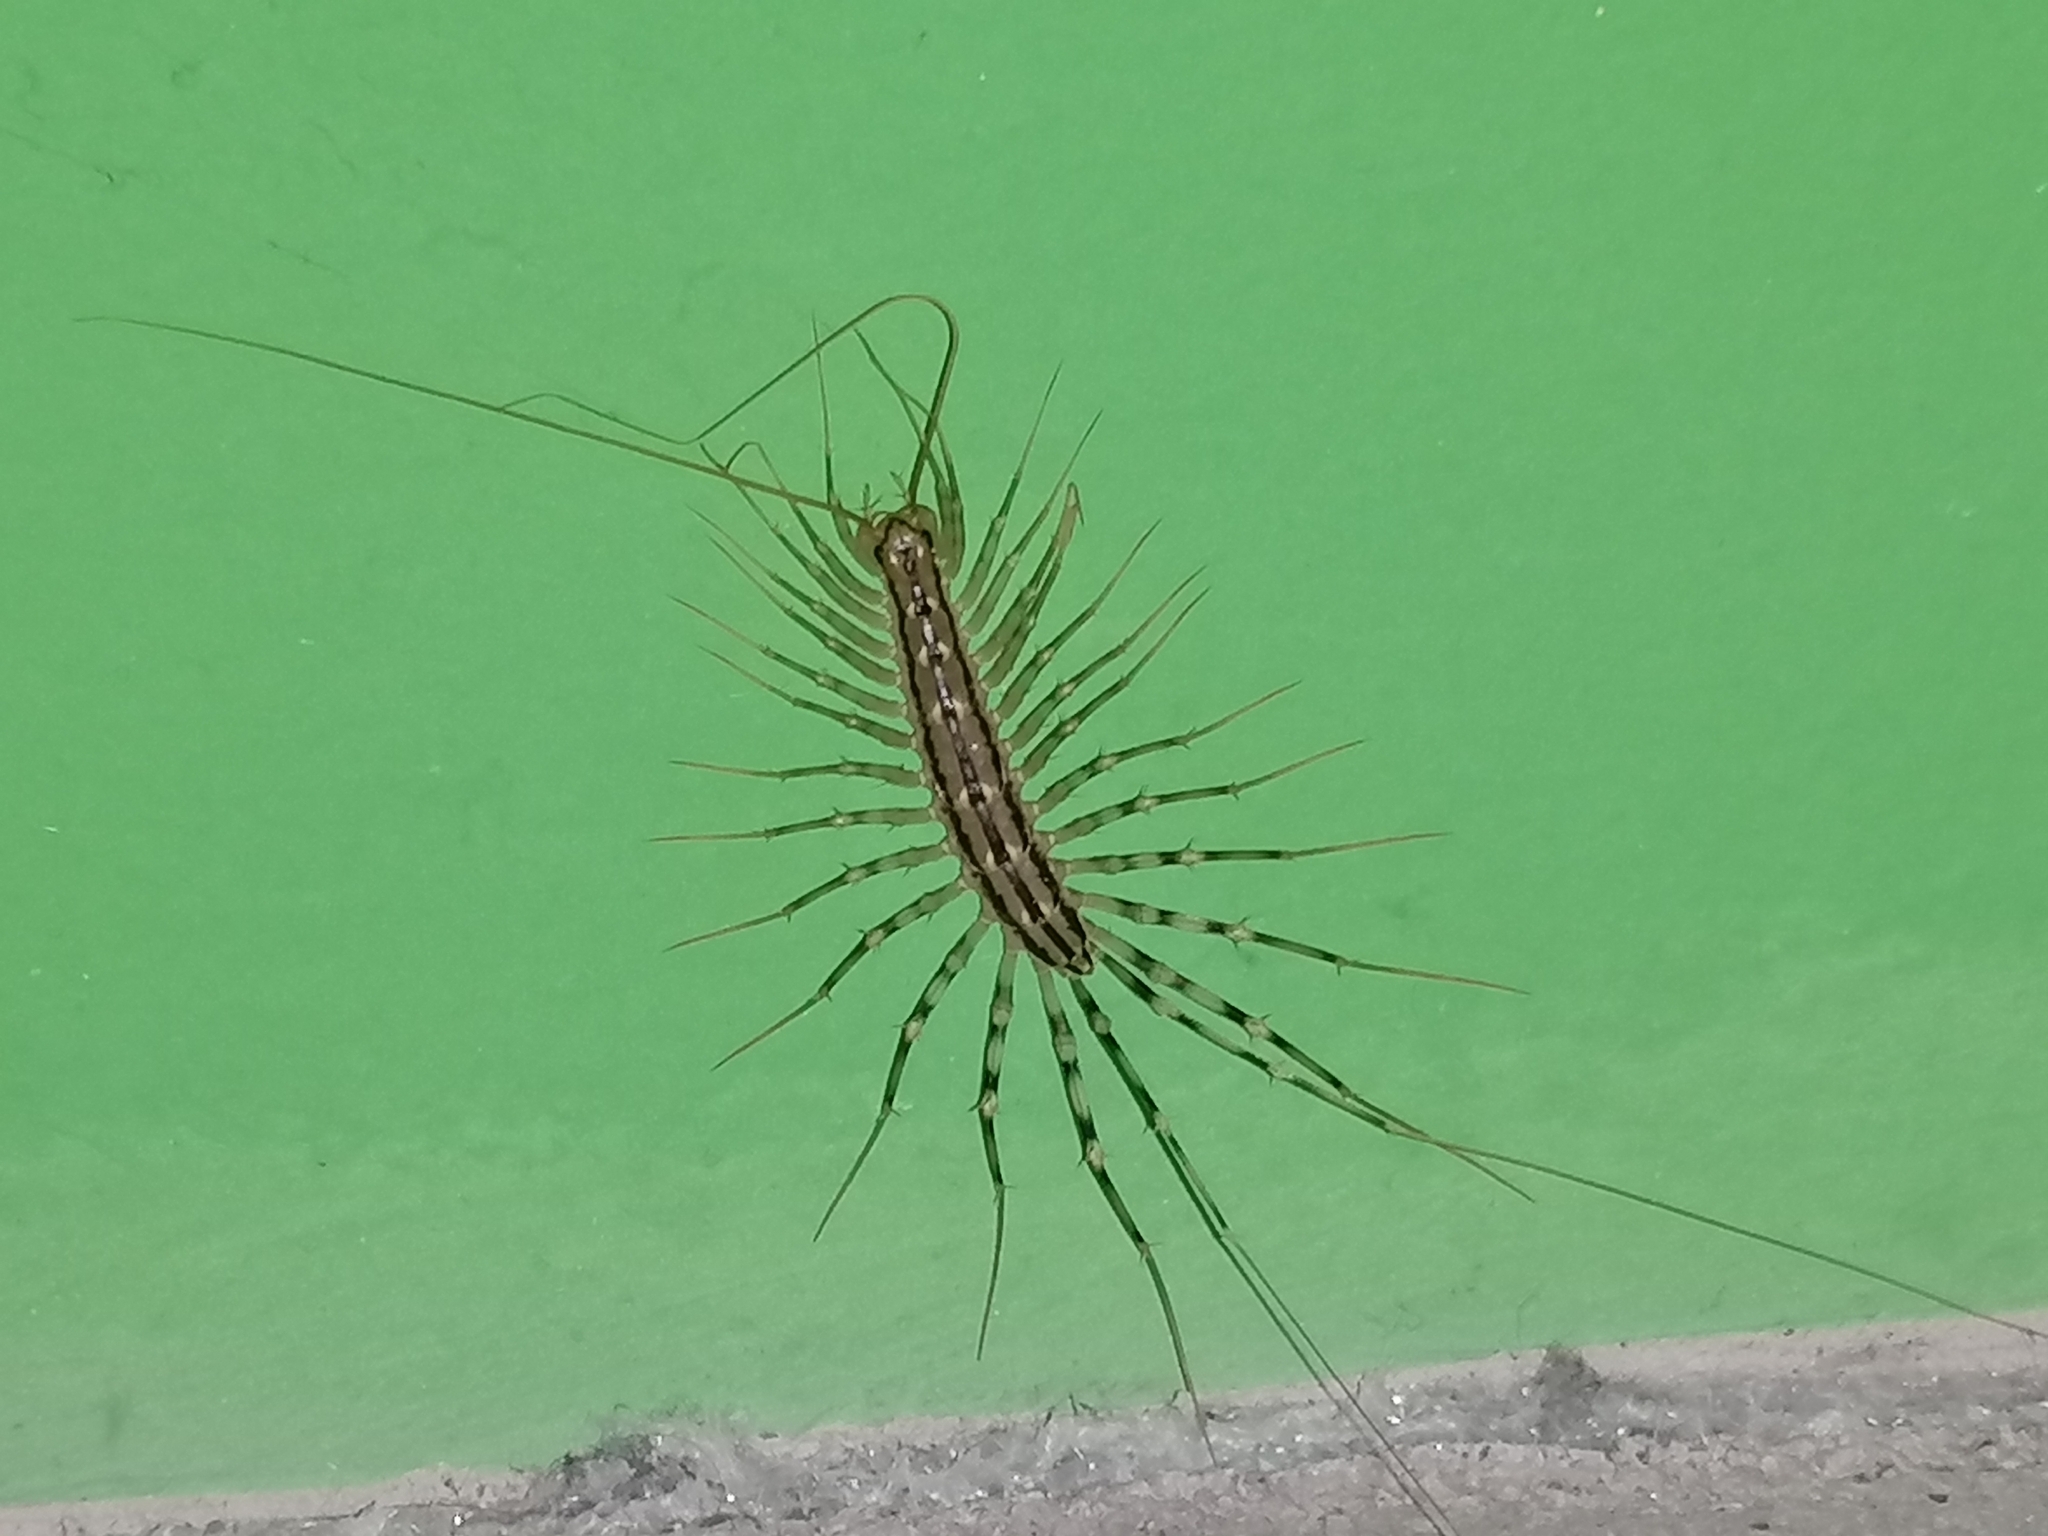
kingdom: Animalia
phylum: Arthropoda
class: Chilopoda
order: Scutigeromorpha
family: Scutigeridae
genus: Scutigera
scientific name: Scutigera coleoptrata
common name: House centipede
